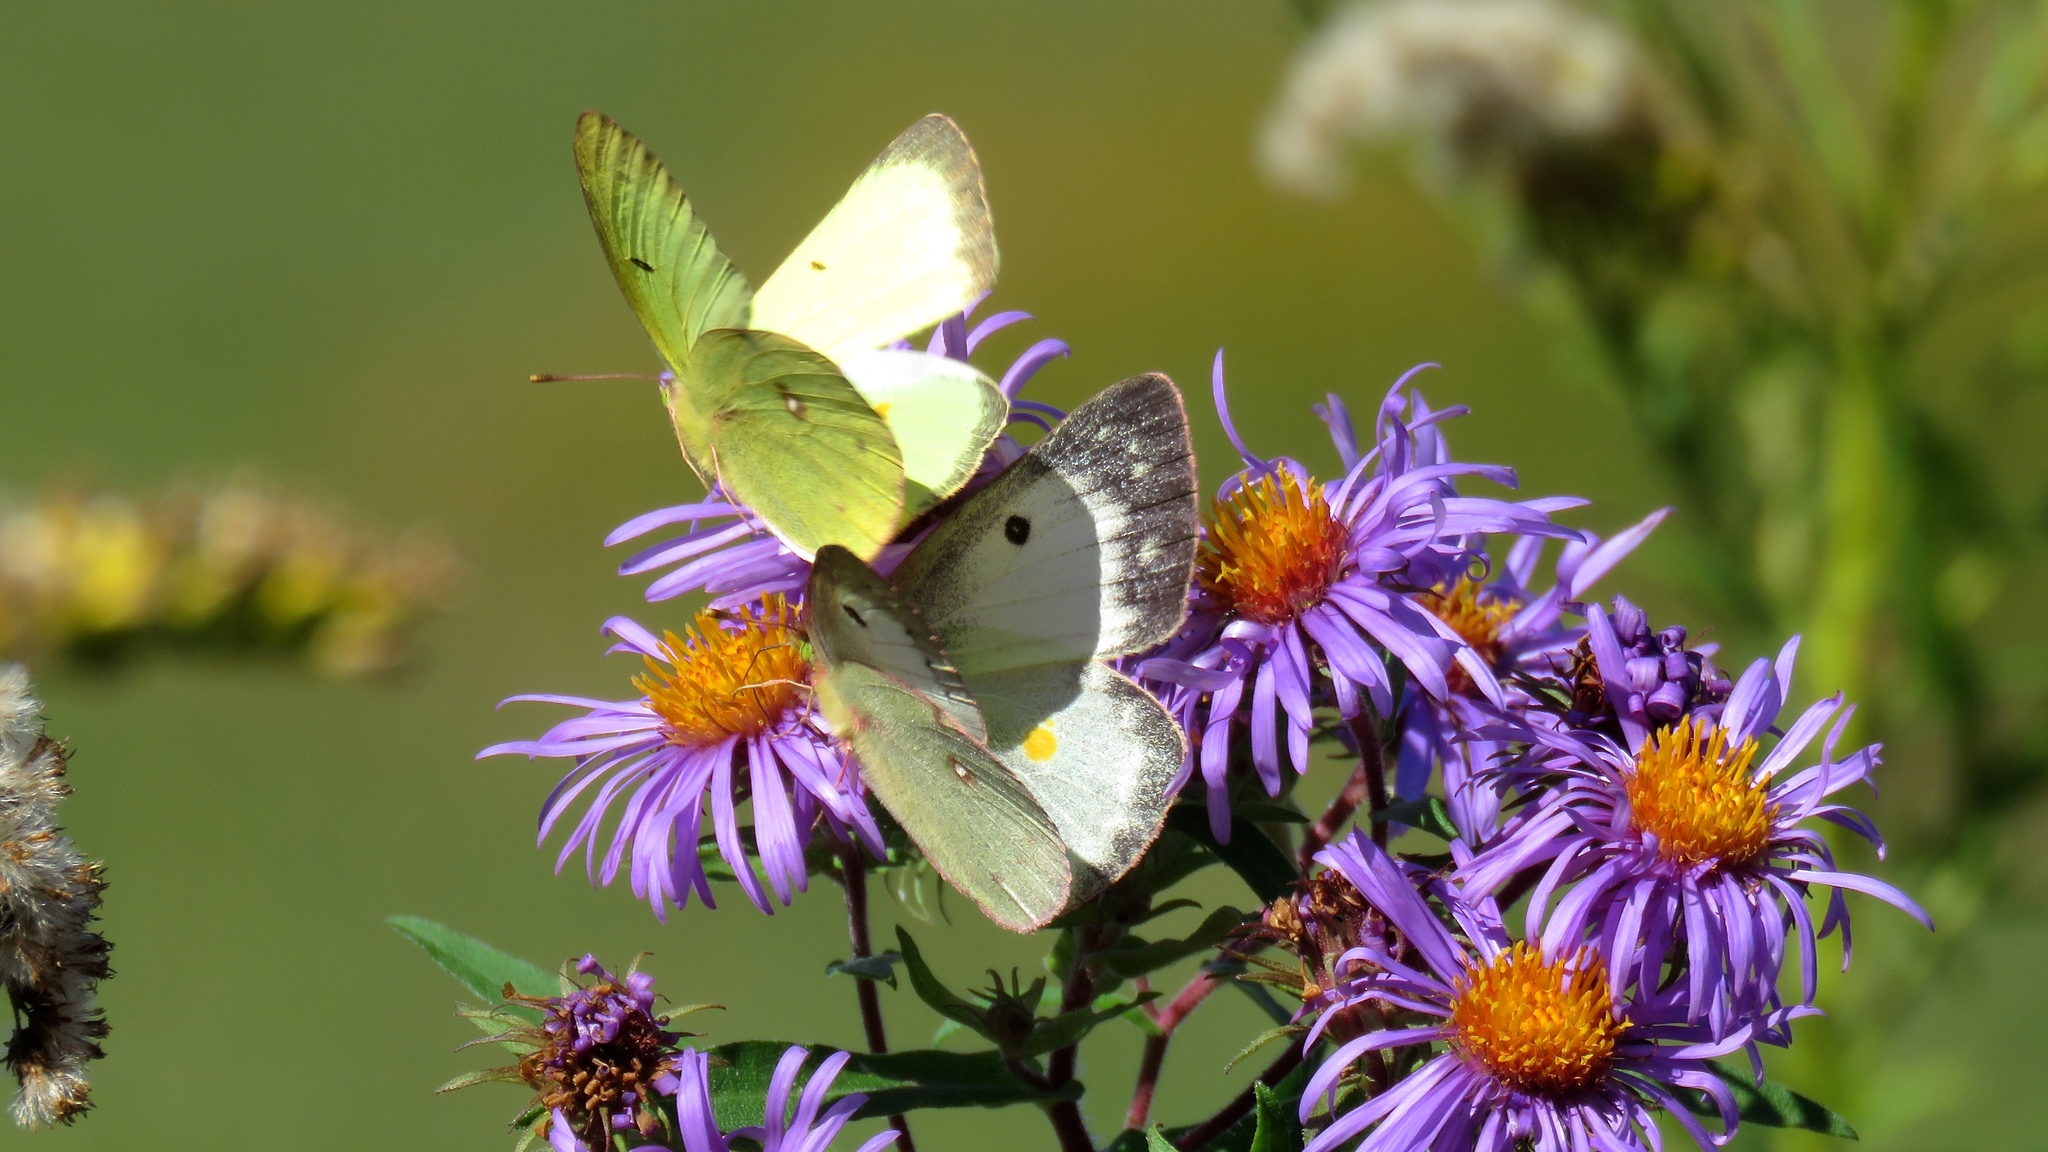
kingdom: Animalia
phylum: Arthropoda
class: Insecta
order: Lepidoptera
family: Pieridae
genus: Colias
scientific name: Colias philodice
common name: Clouded sulphur
